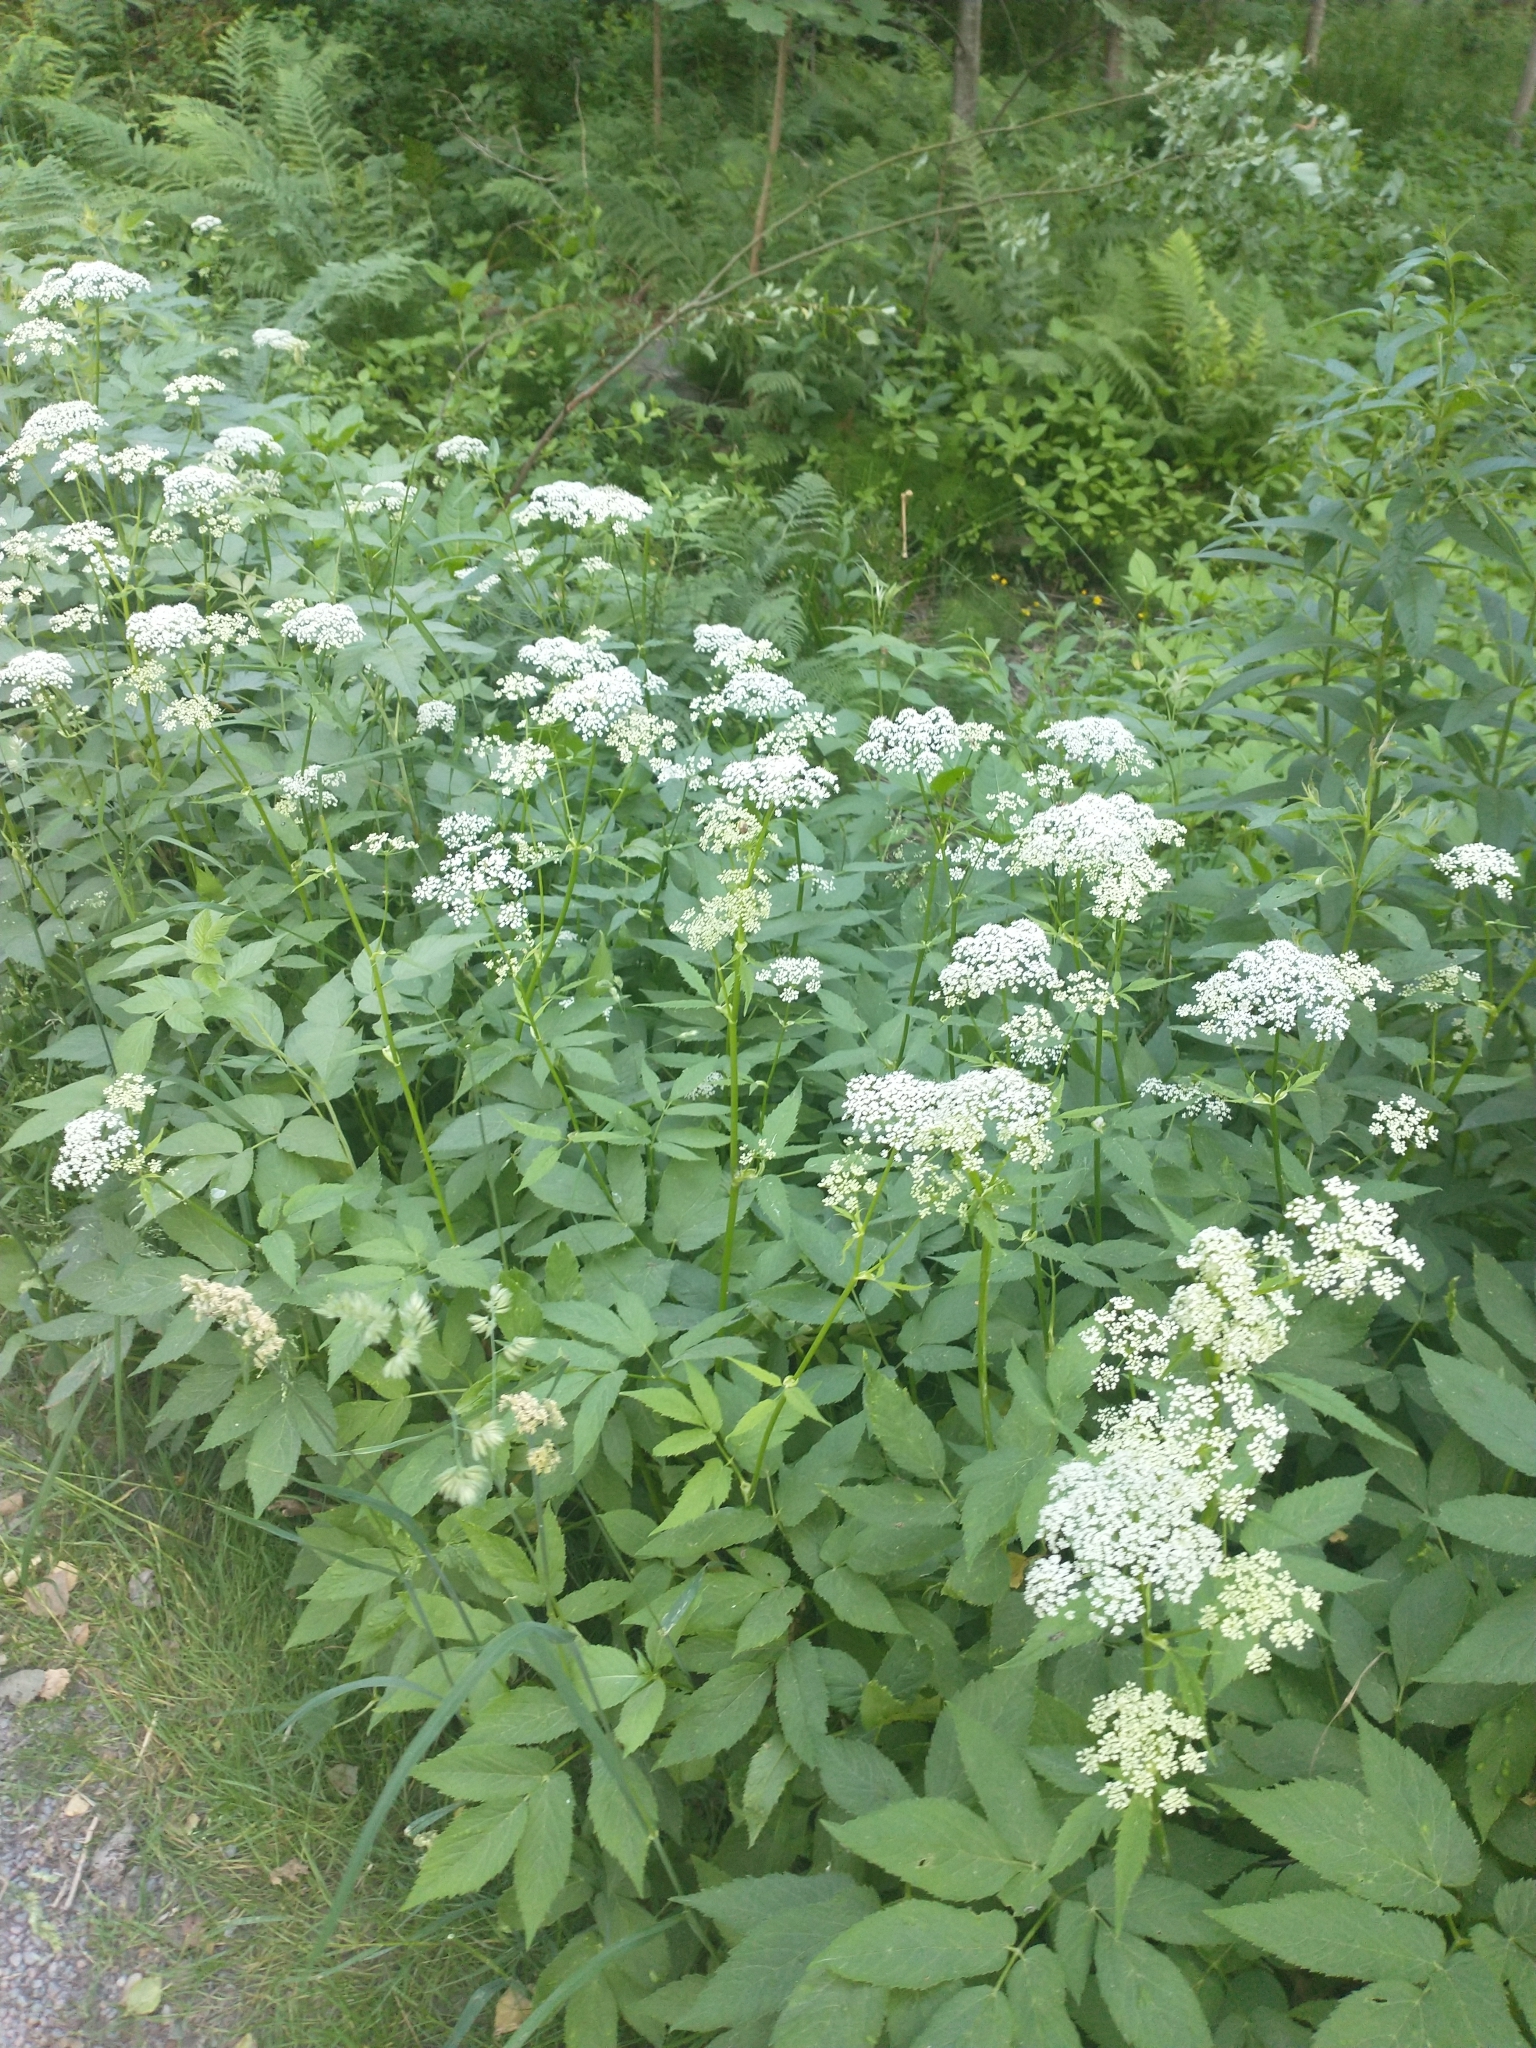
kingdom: Plantae
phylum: Tracheophyta
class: Magnoliopsida
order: Apiales
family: Apiaceae
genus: Aegopodium
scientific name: Aegopodium podagraria
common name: Ground-elder
